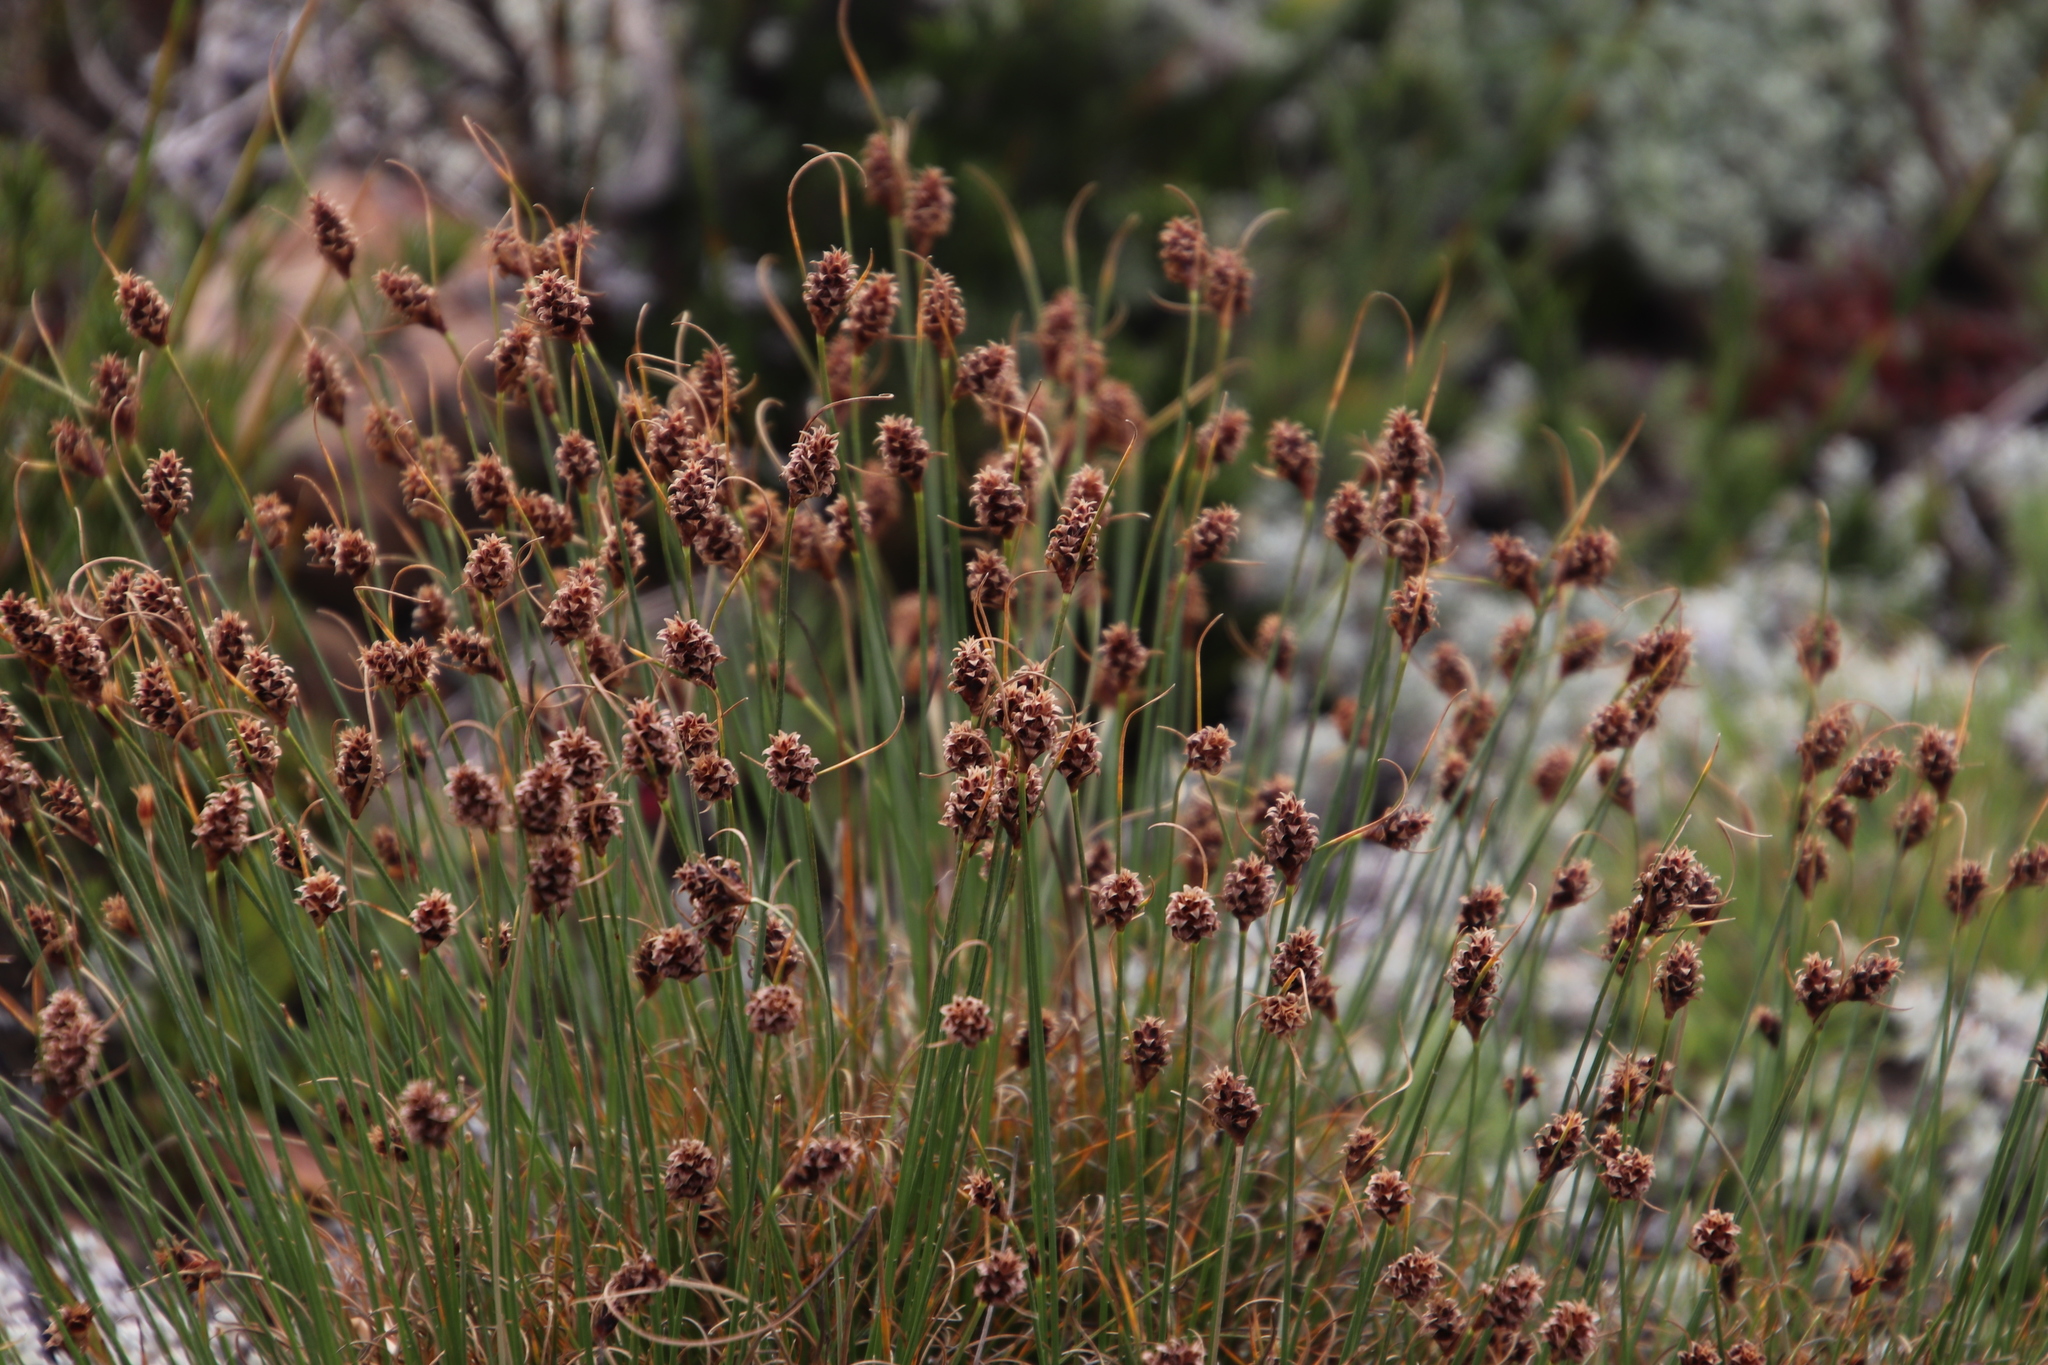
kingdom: Plantae
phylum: Tracheophyta
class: Liliopsida
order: Poales
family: Cyperaceae
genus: Ficinia
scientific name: Ficinia nigrescens
